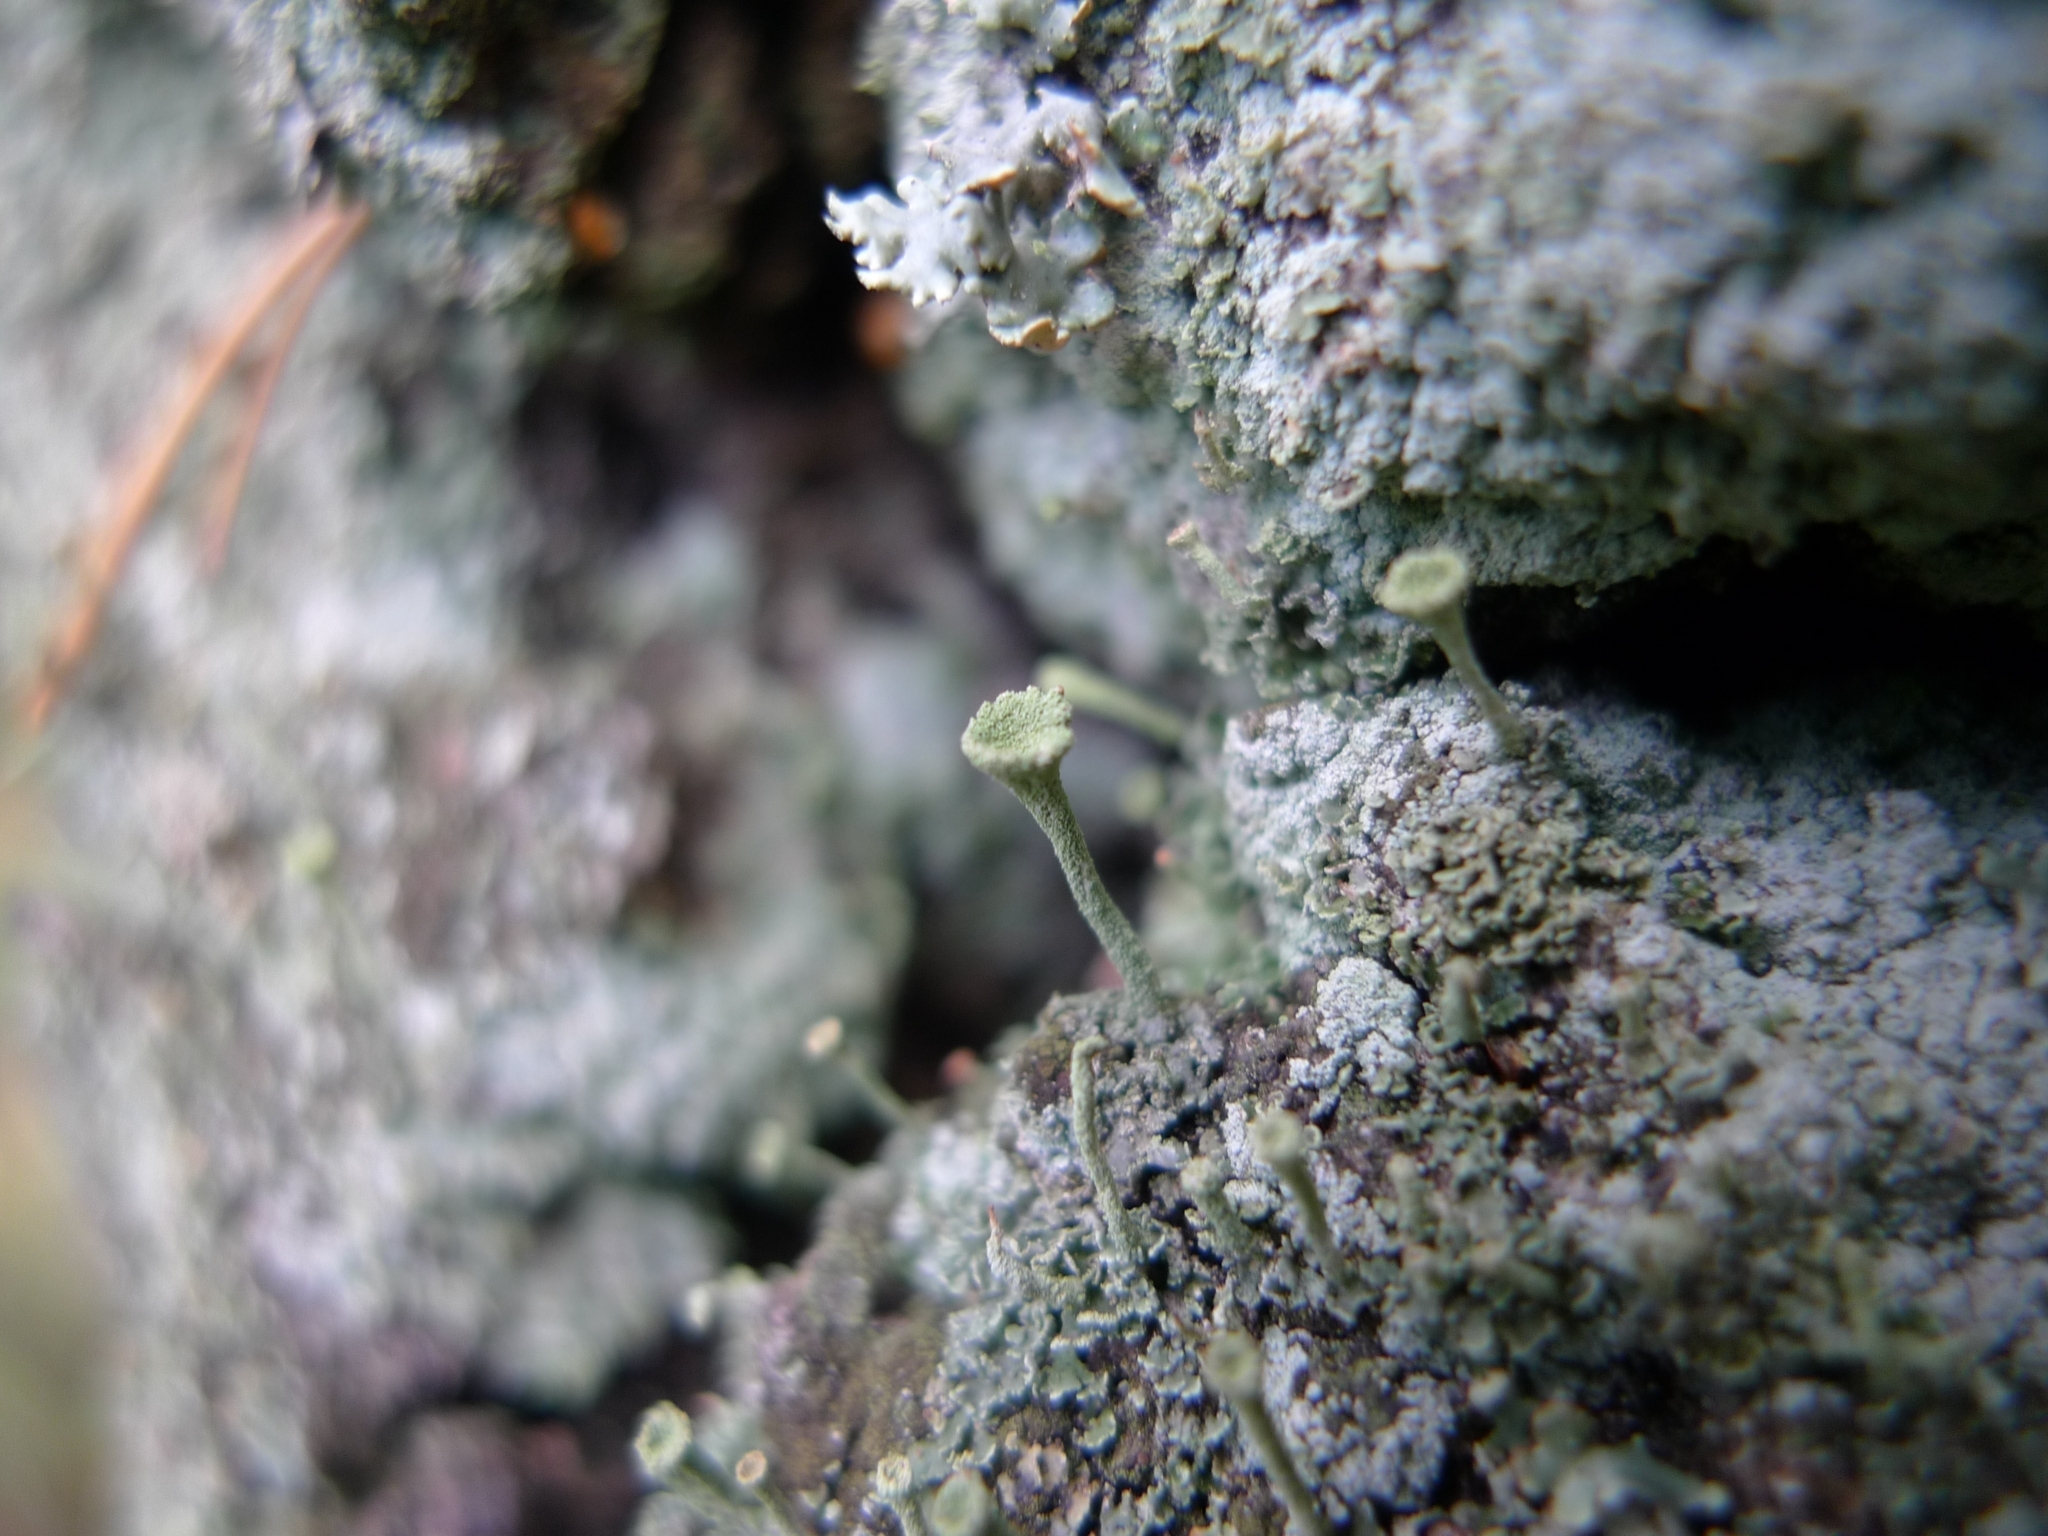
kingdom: Fungi
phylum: Ascomycota
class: Lecanoromycetes
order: Lecanorales
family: Cladoniaceae
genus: Cladonia
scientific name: Cladonia fimbriata
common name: Powdered trumpet lichen
